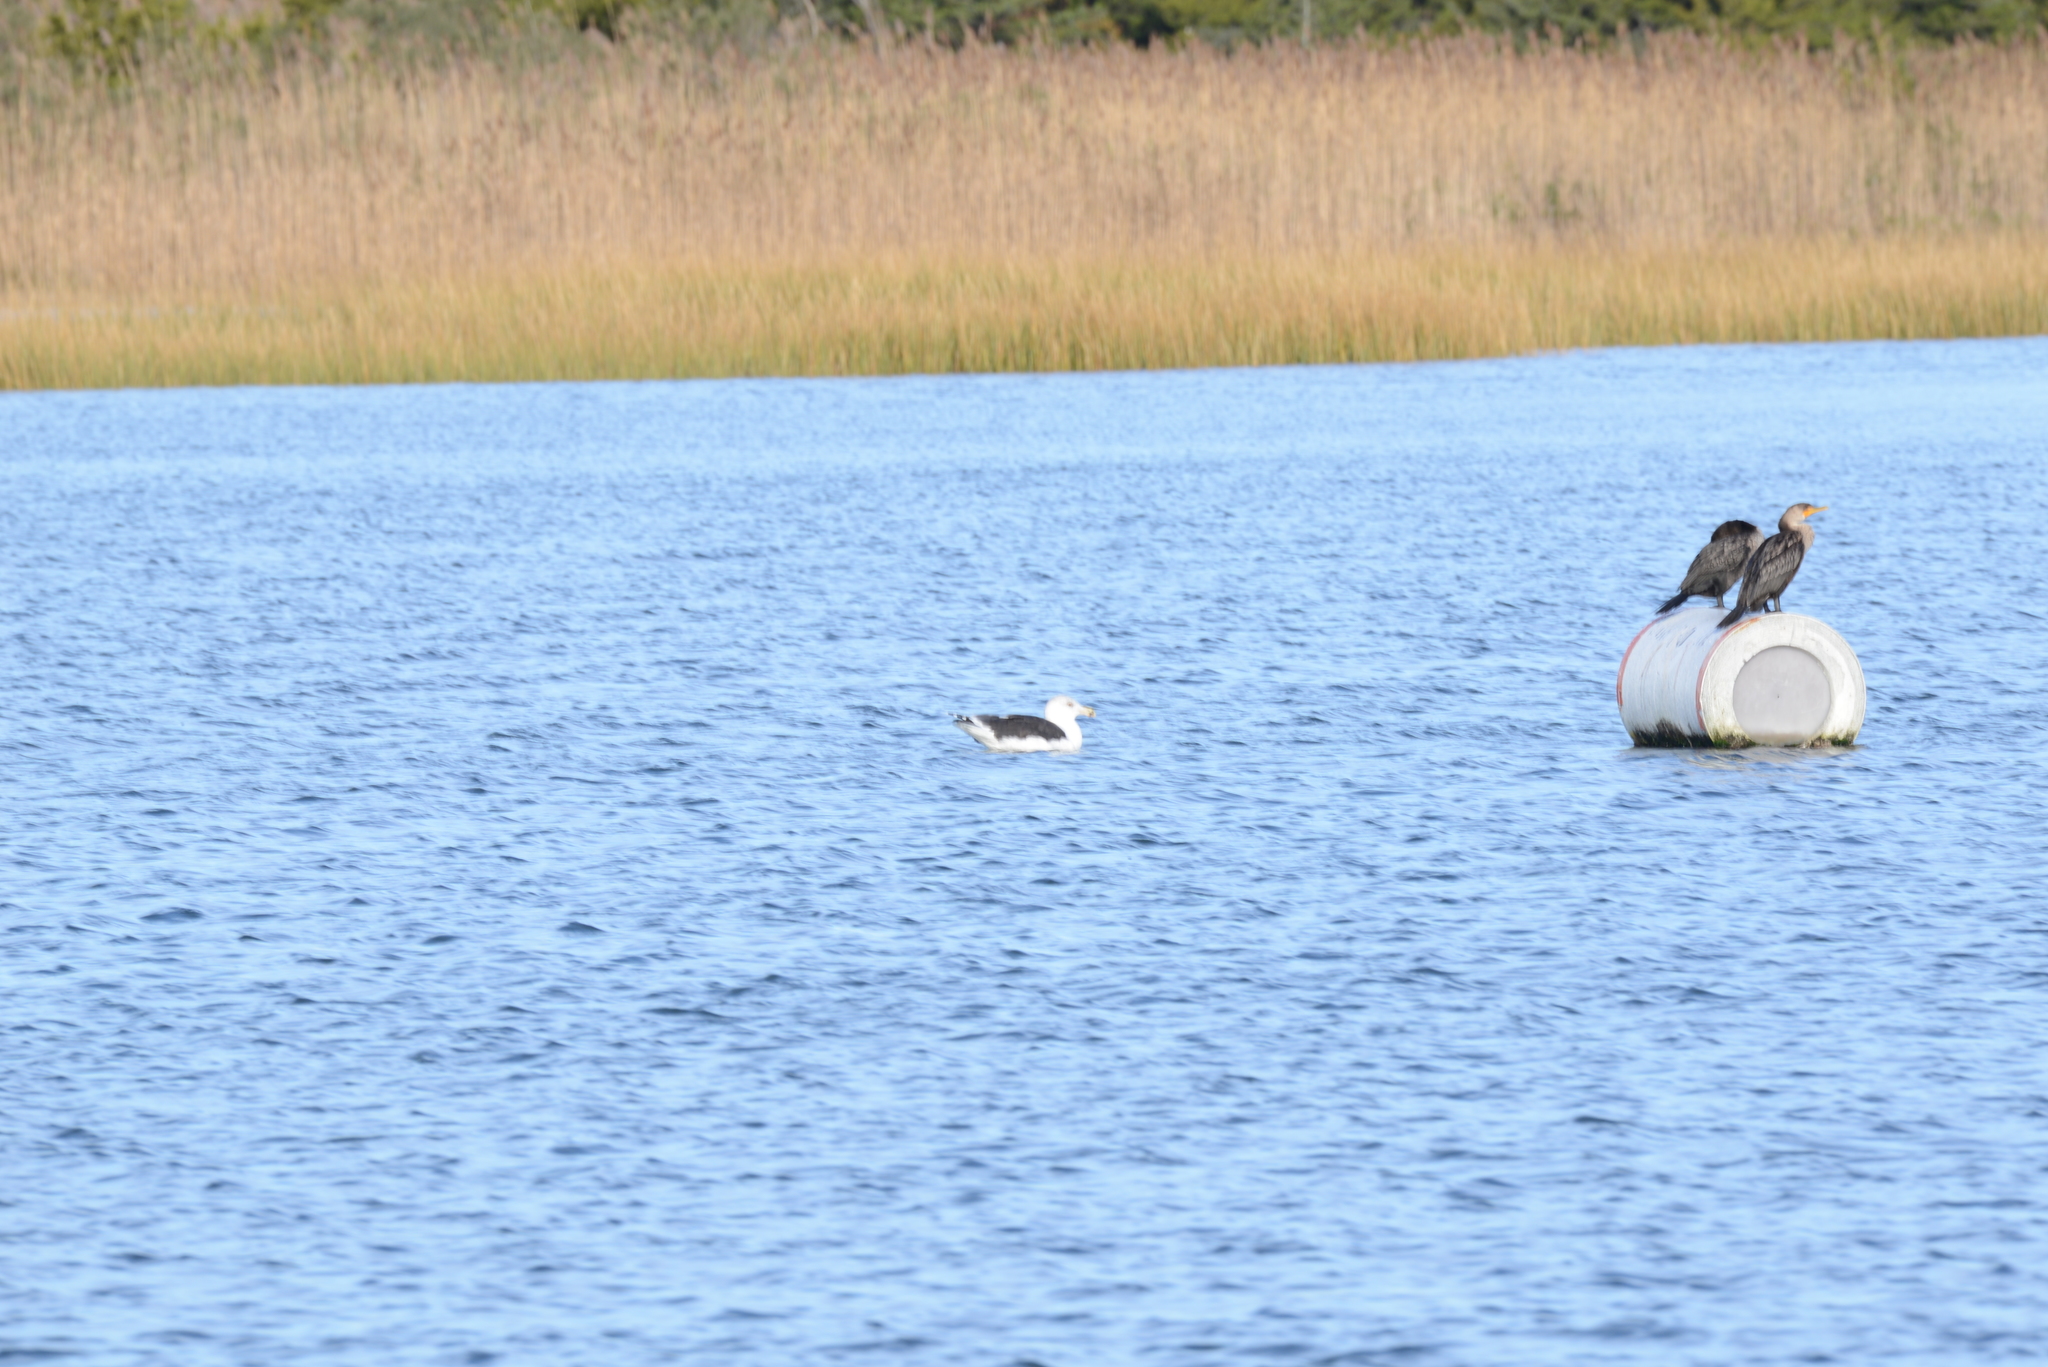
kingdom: Animalia
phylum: Chordata
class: Aves
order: Charadriiformes
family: Laridae
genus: Larus
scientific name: Larus marinus
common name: Great black-backed gull
